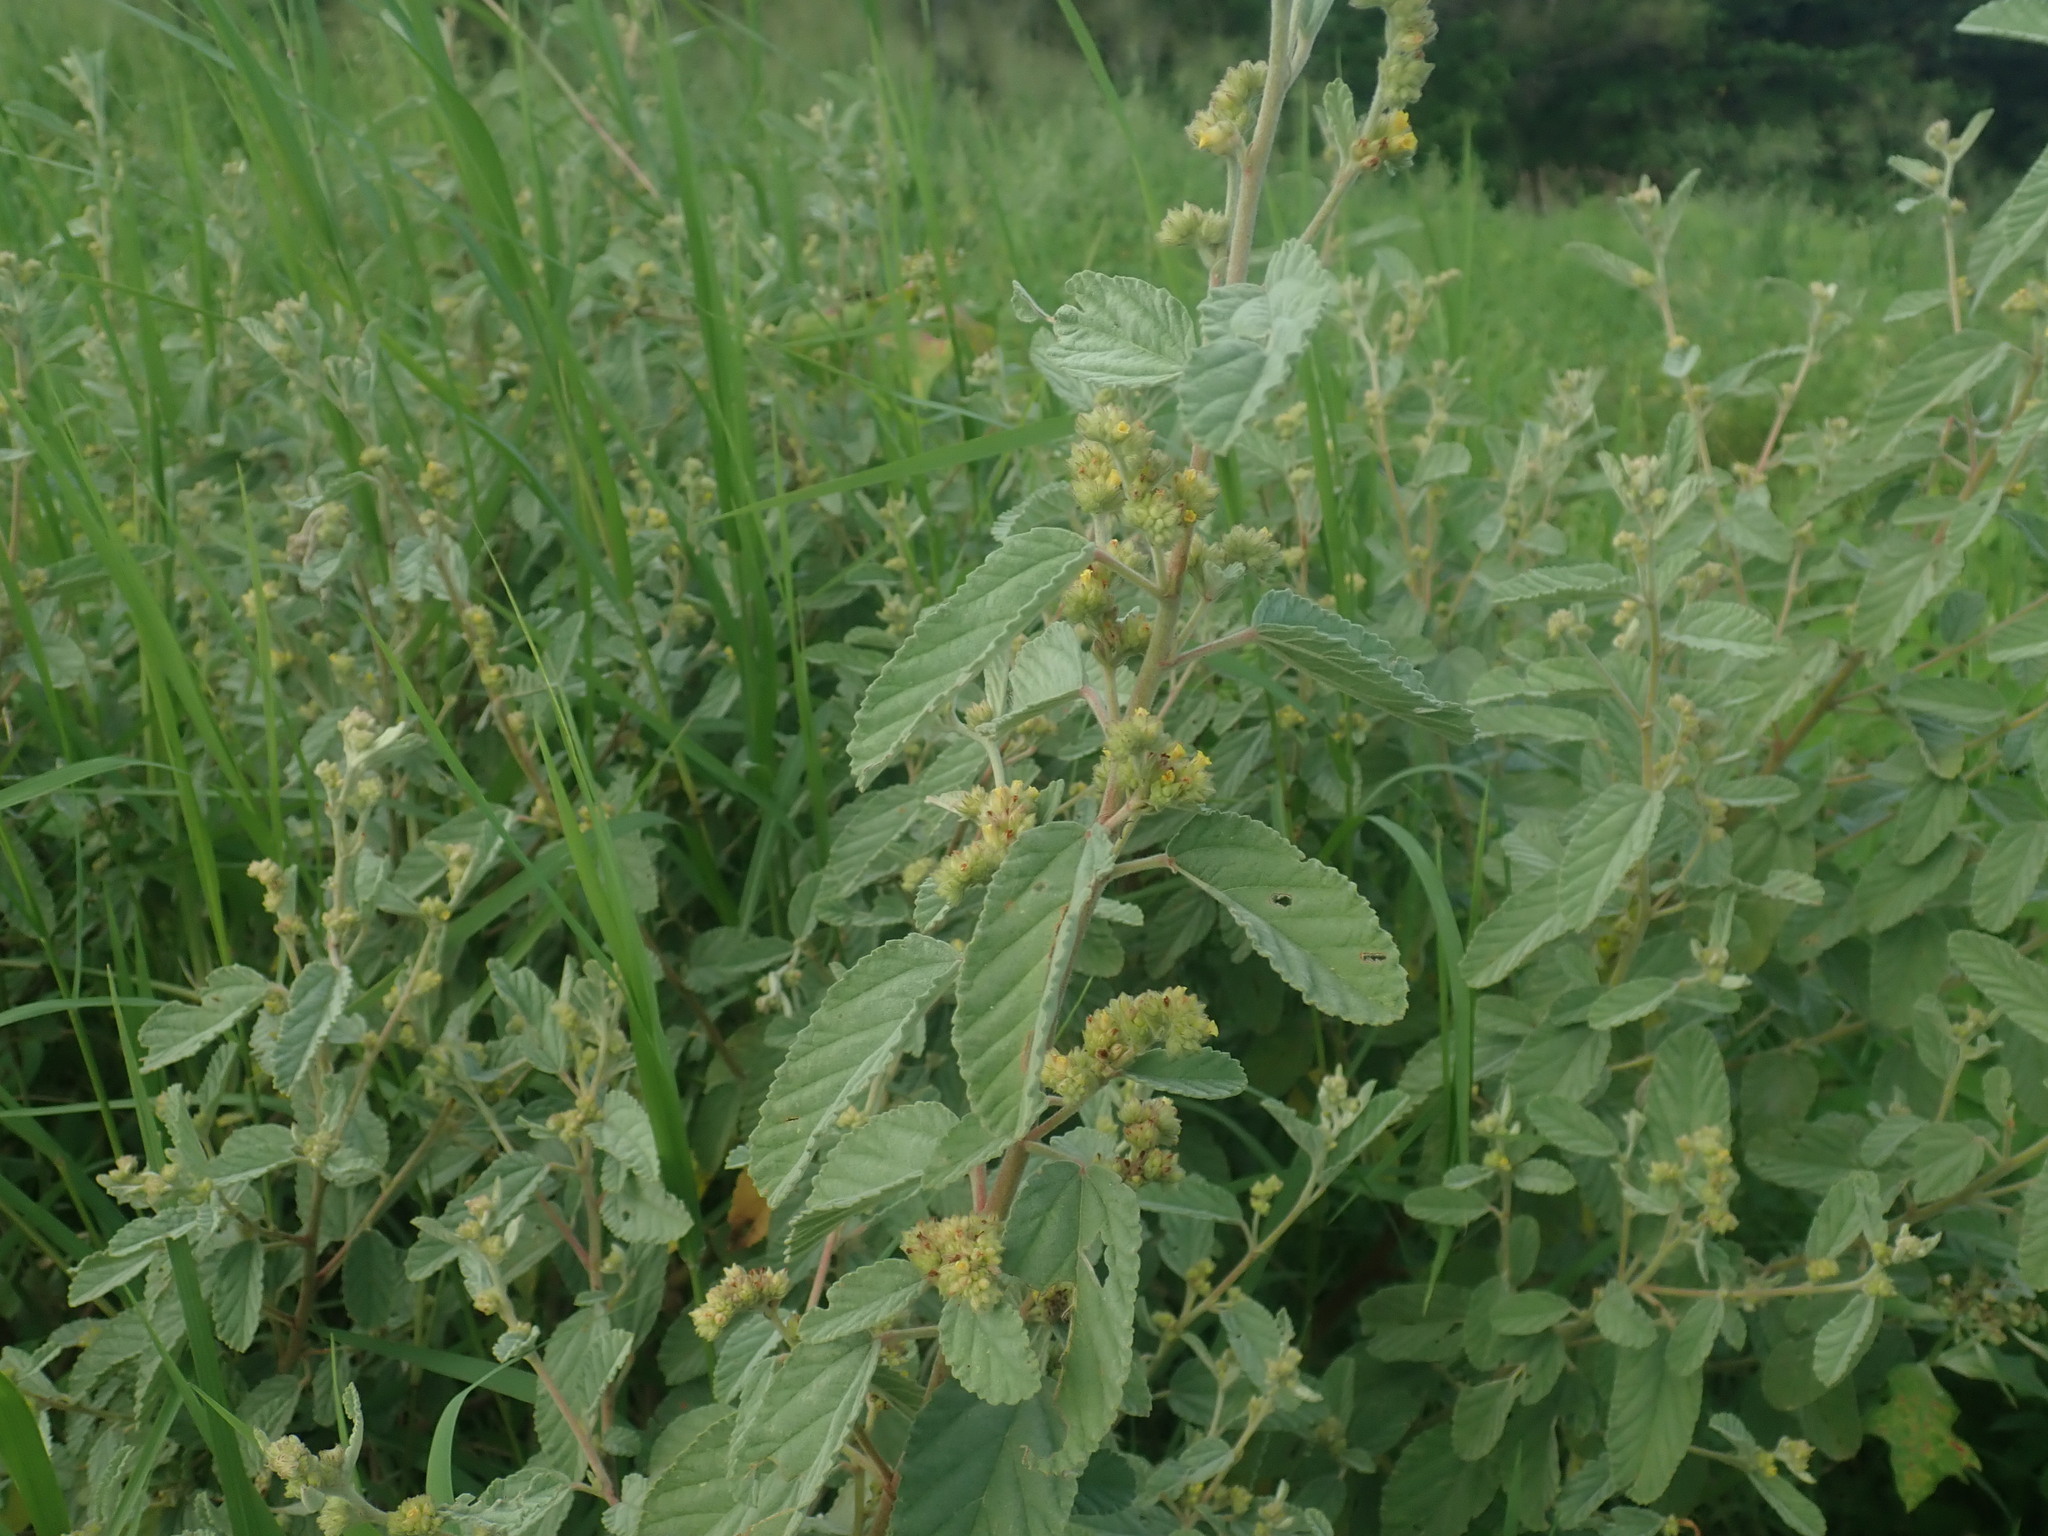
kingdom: Plantae
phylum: Tracheophyta
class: Magnoliopsida
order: Malvales
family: Malvaceae
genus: Waltheria
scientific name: Waltheria indica
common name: Leather-coat
